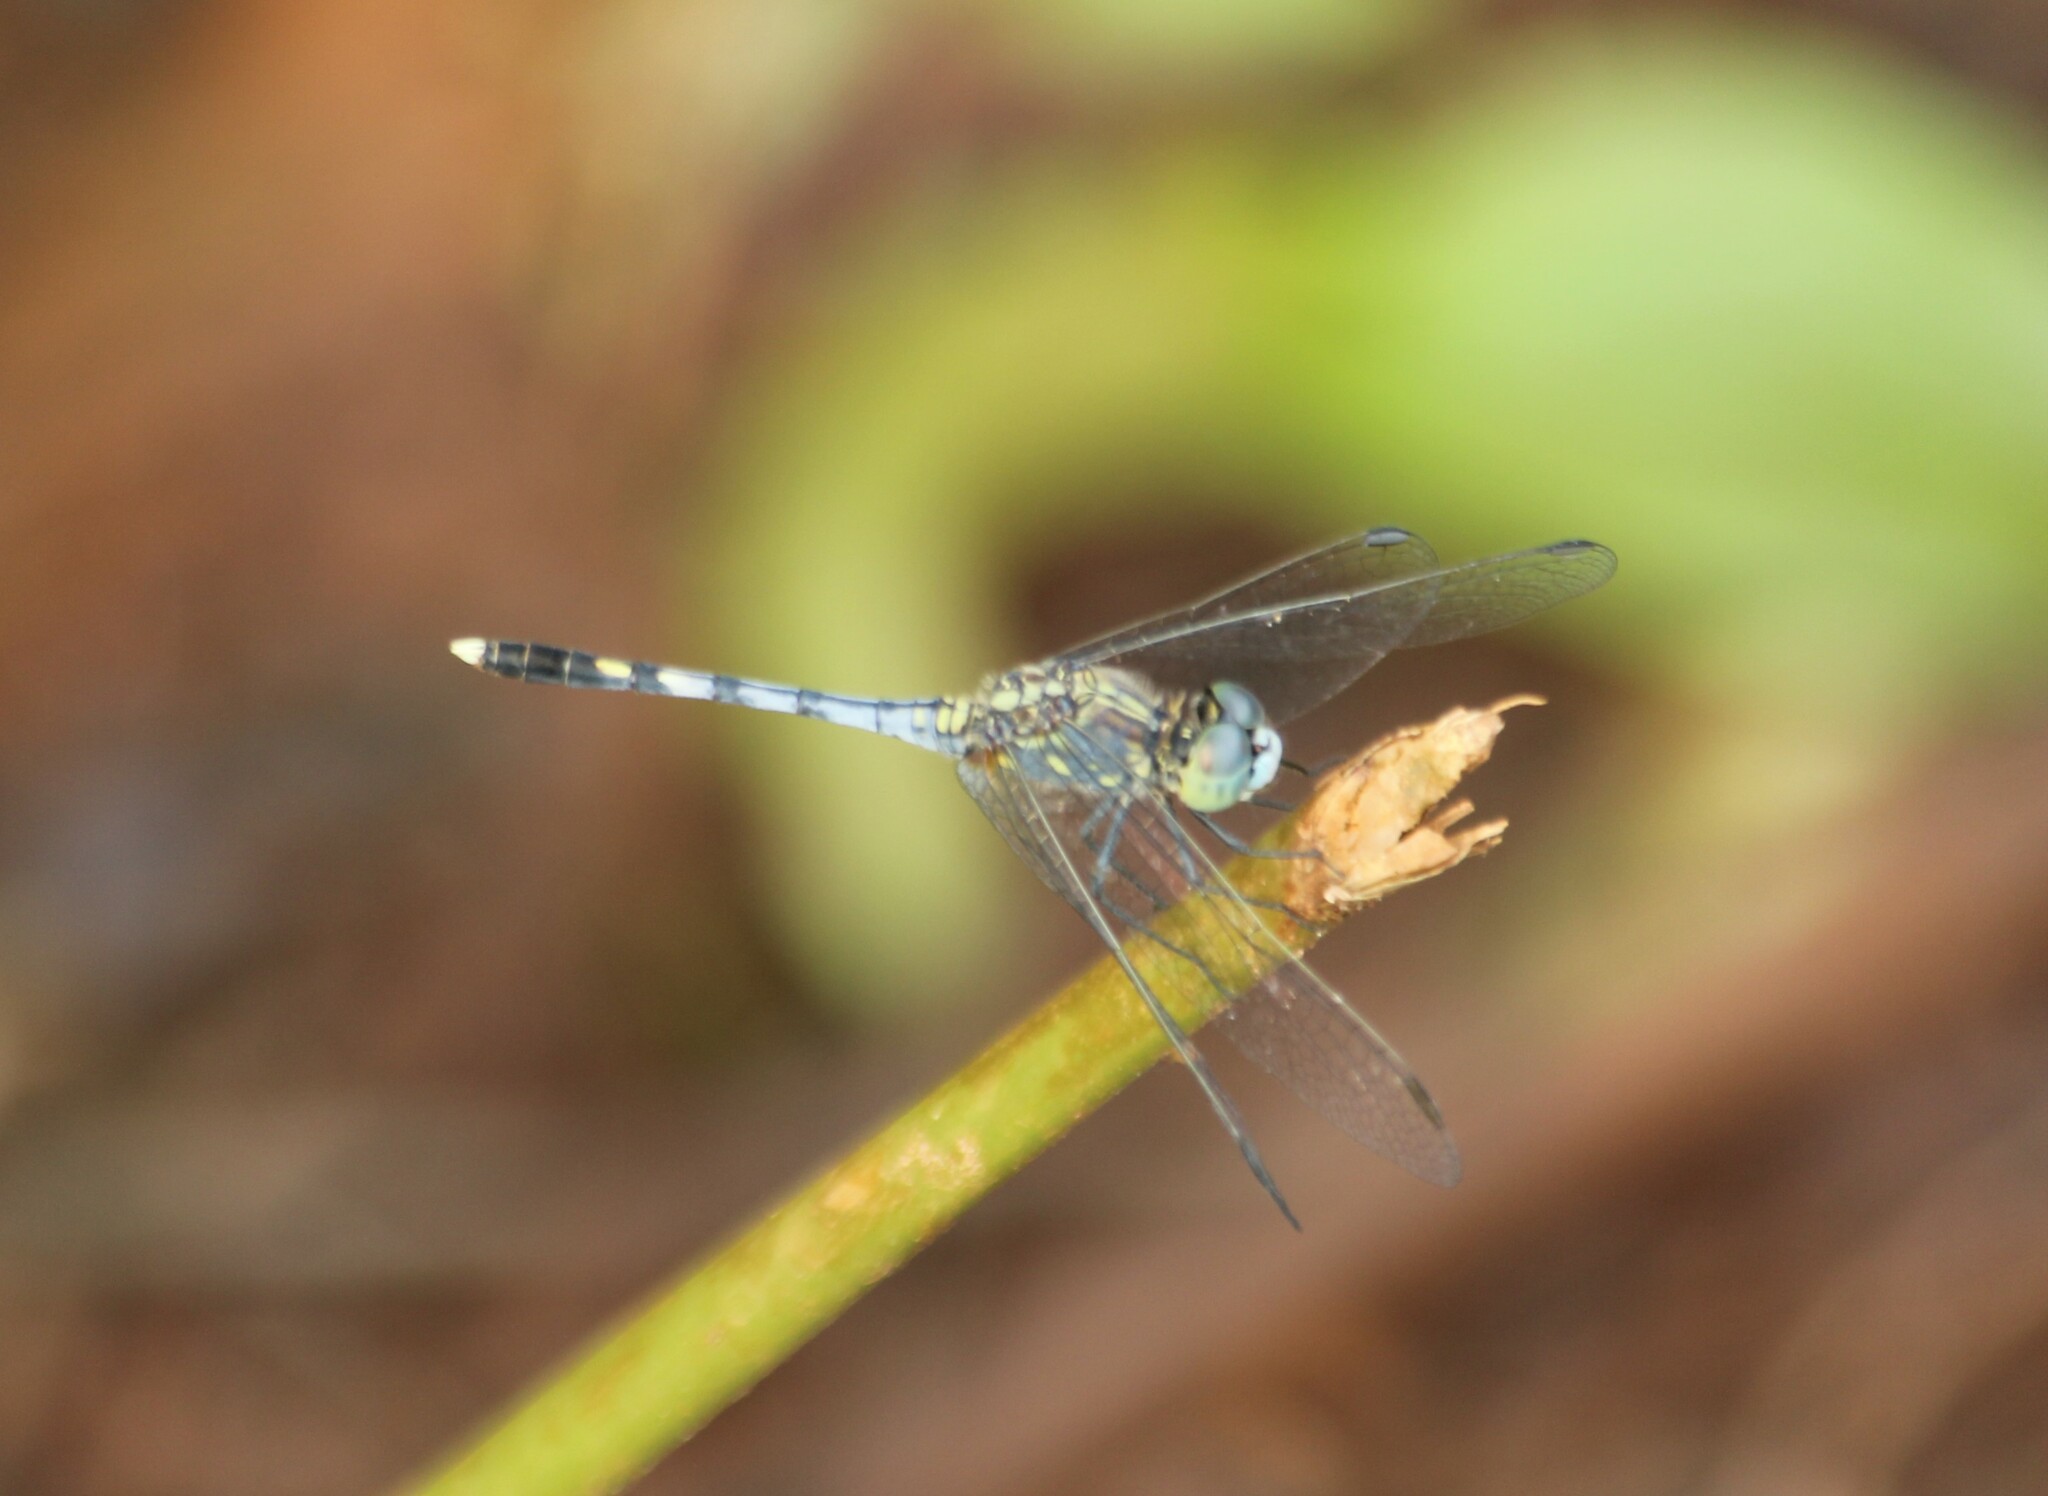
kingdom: Animalia
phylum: Arthropoda
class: Insecta
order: Odonata
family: Libellulidae
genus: Diplacodes
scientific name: Diplacodes trivialis
